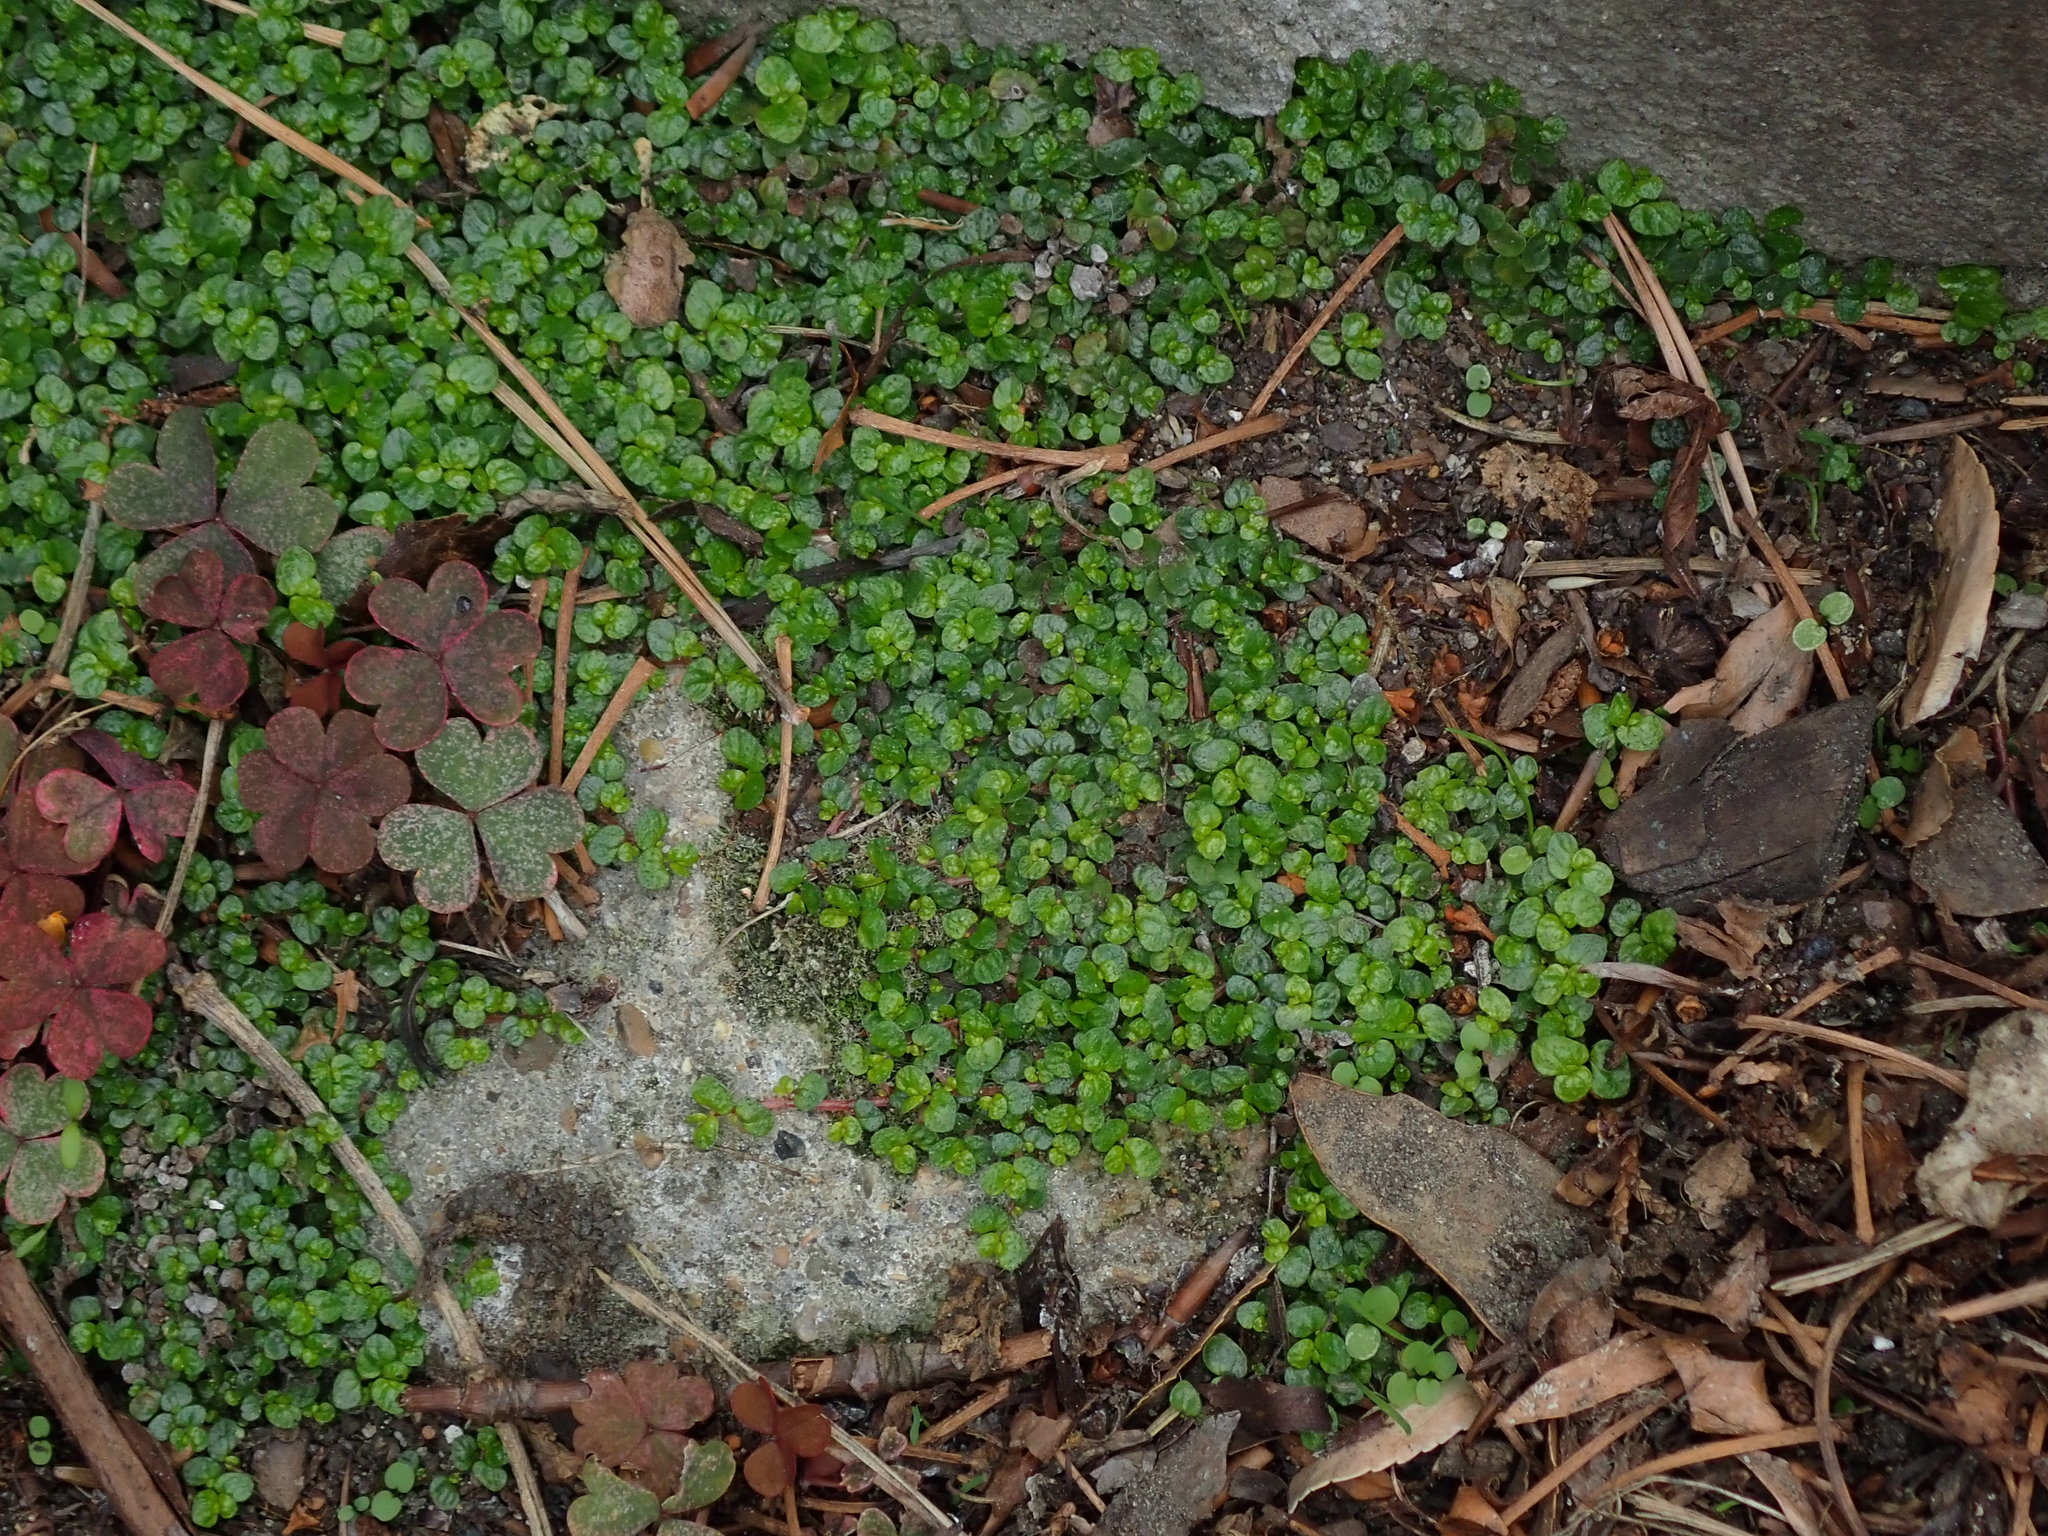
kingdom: Plantae
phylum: Tracheophyta
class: Magnoliopsida
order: Rosales
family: Urticaceae
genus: Soleirolia
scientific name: Soleirolia soleirolii
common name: Mind-your-own-business
